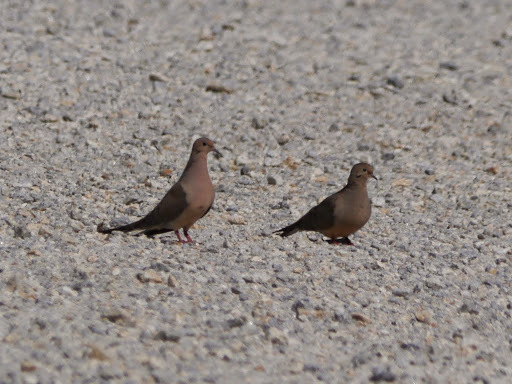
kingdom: Animalia
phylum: Chordata
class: Aves
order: Columbiformes
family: Columbidae
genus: Zenaida
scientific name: Zenaida macroura
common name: Mourning dove
